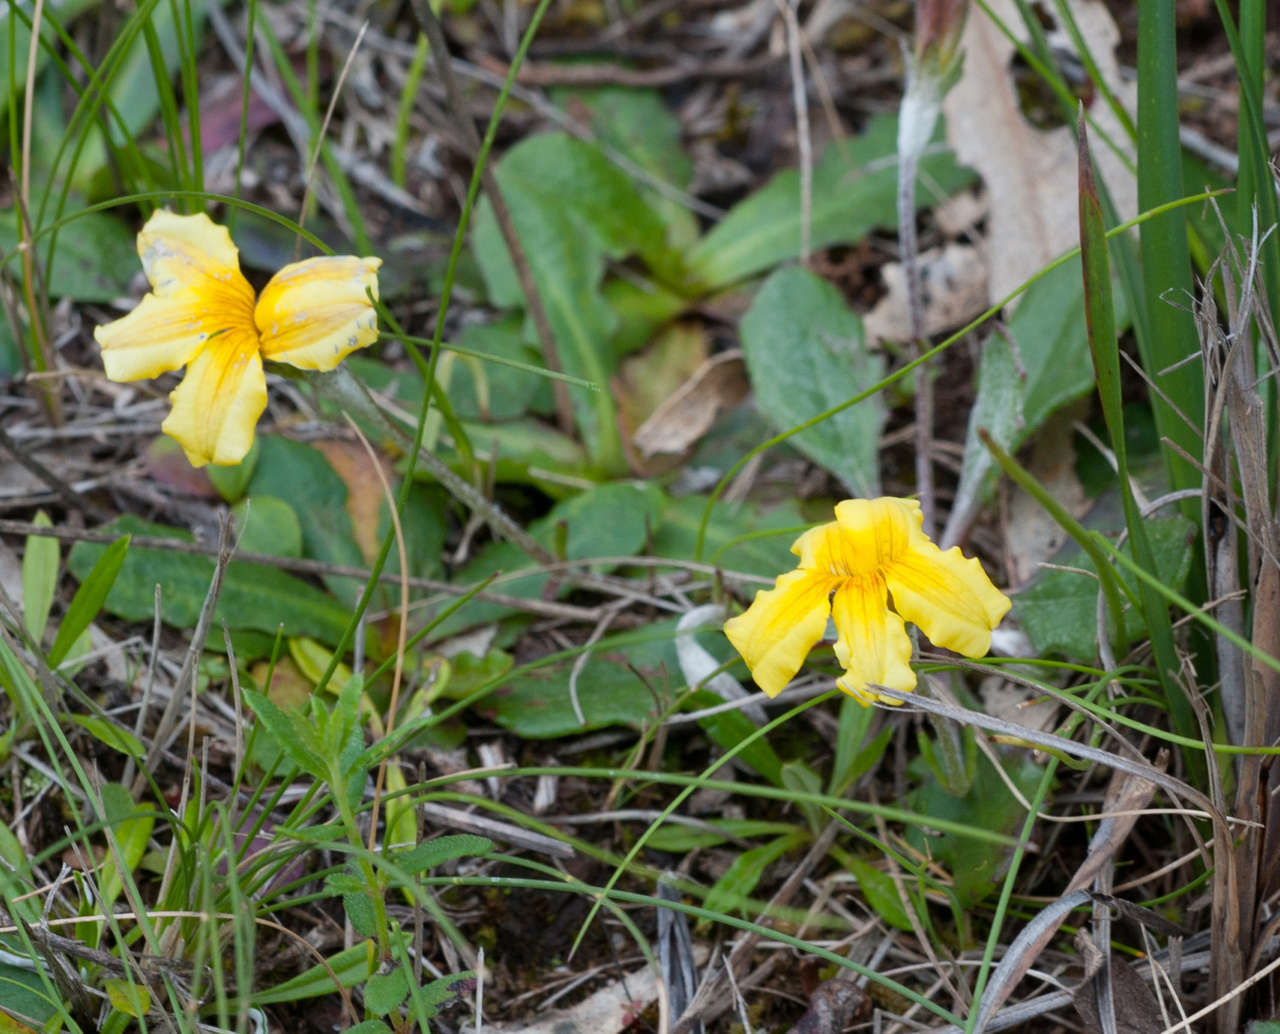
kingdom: Plantae
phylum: Tracheophyta
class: Magnoliopsida
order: Asterales
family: Goodeniaceae
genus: Goodenia
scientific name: Goodenia geniculata
